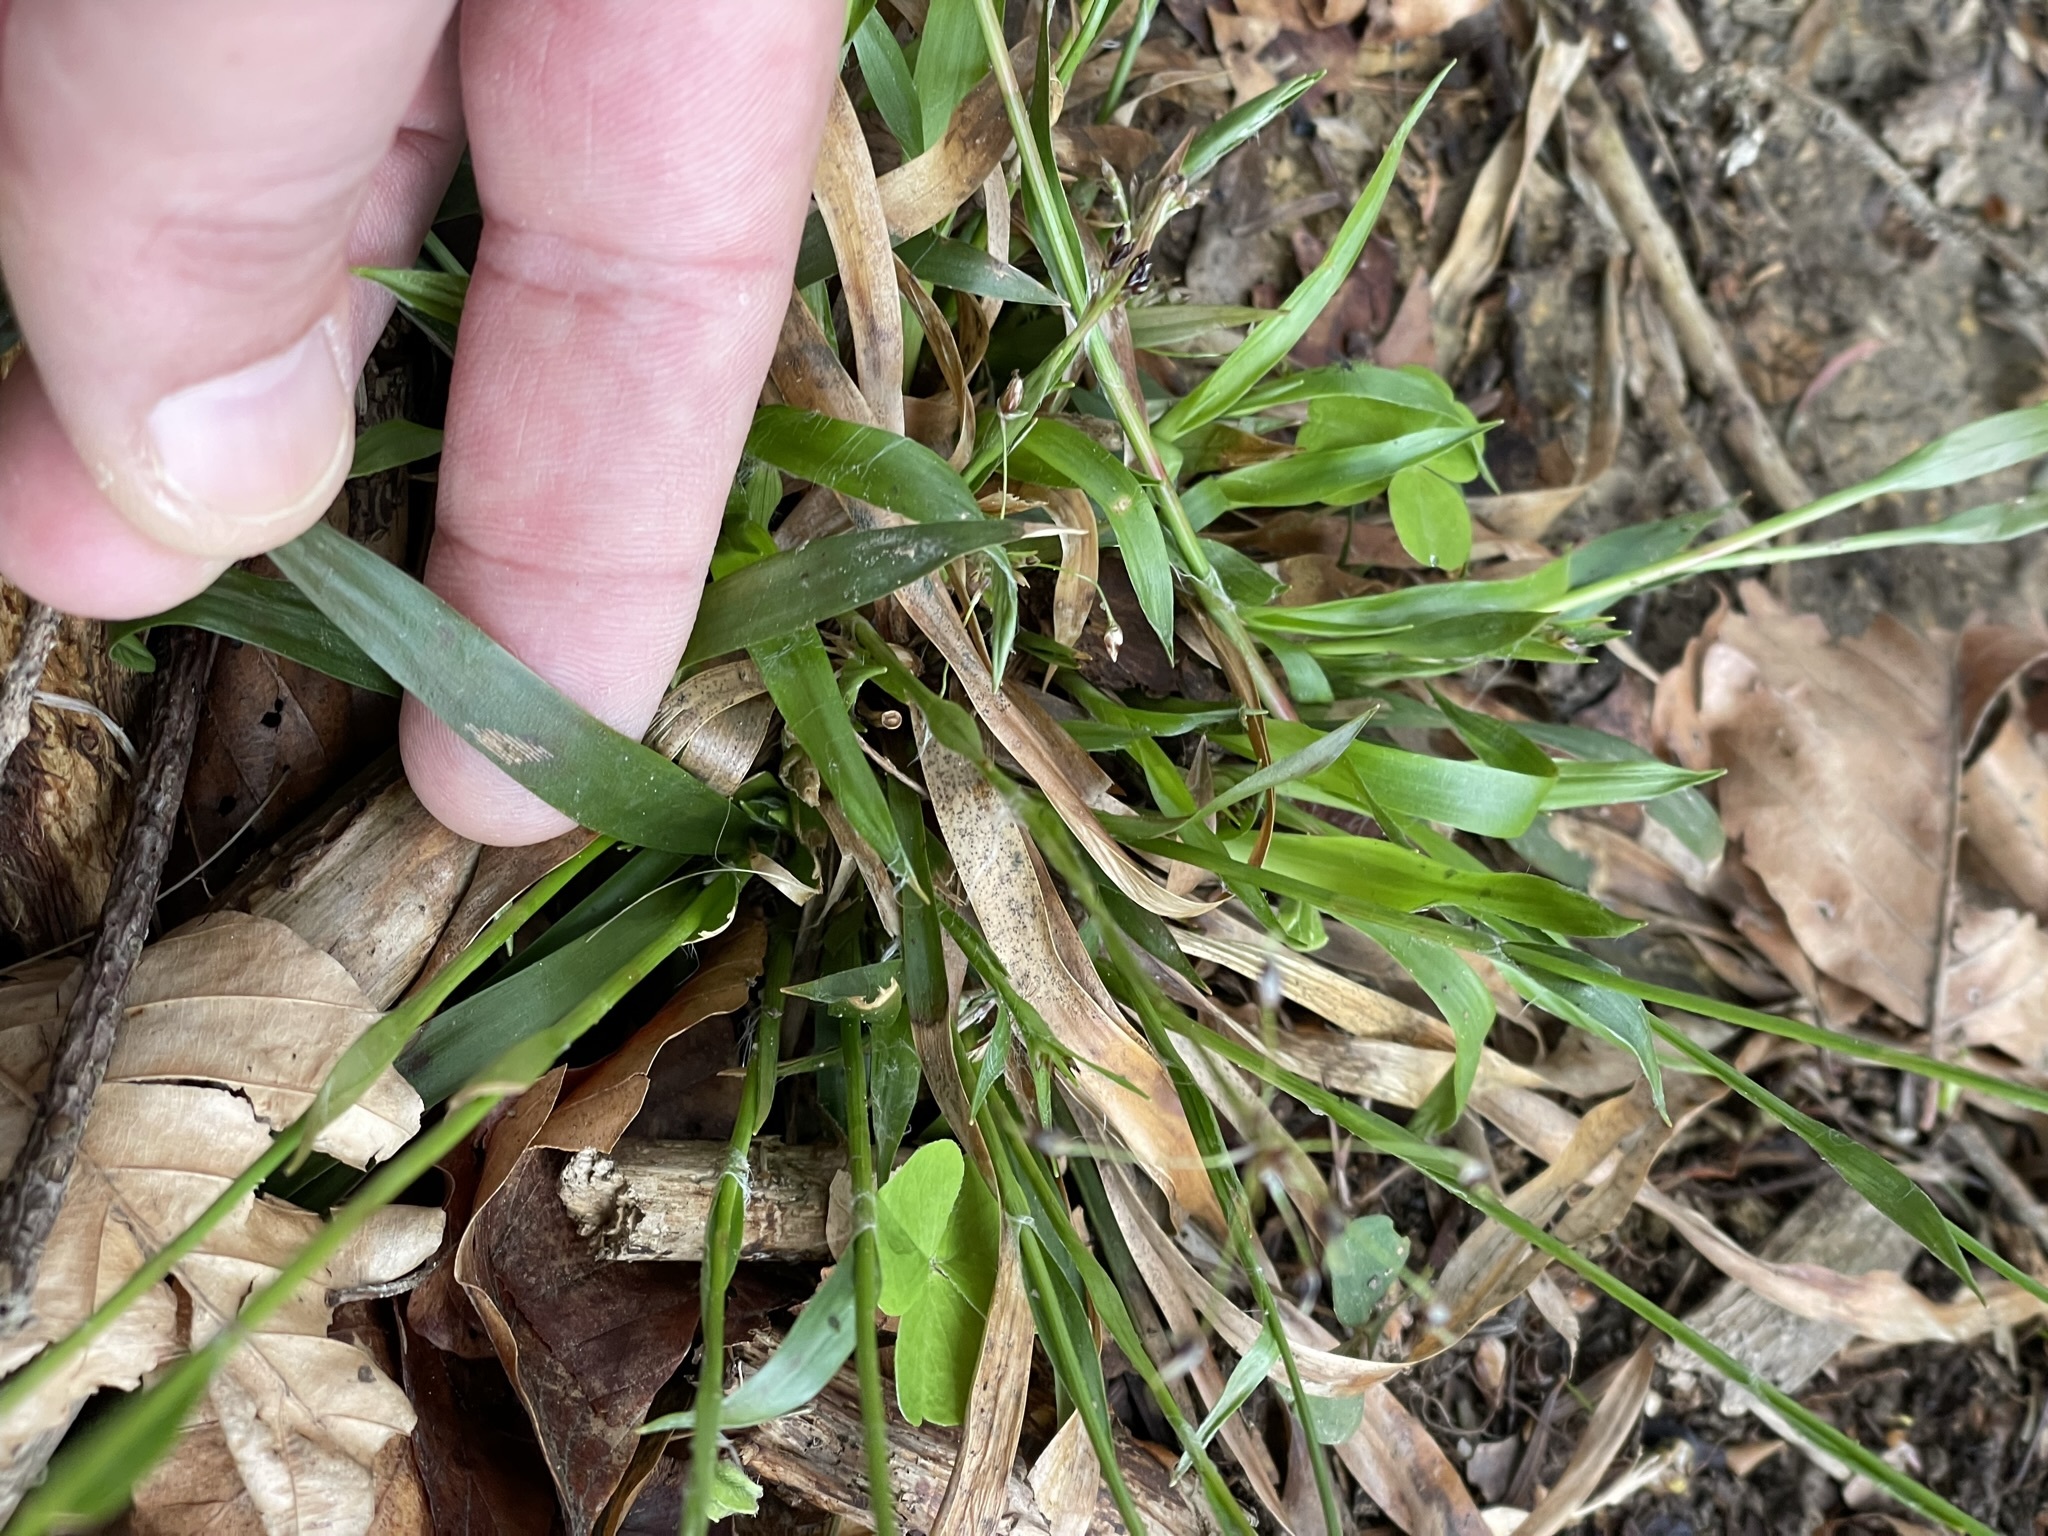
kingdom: Plantae
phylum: Tracheophyta
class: Liliopsida
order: Poales
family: Juncaceae
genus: Luzula
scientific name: Luzula pilosa
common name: Hairy wood-rush
